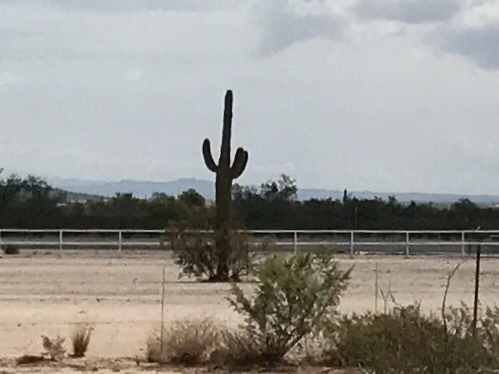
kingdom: Plantae
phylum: Tracheophyta
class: Magnoliopsida
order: Caryophyllales
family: Cactaceae
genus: Carnegiea
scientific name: Carnegiea gigantea
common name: Saguaro
